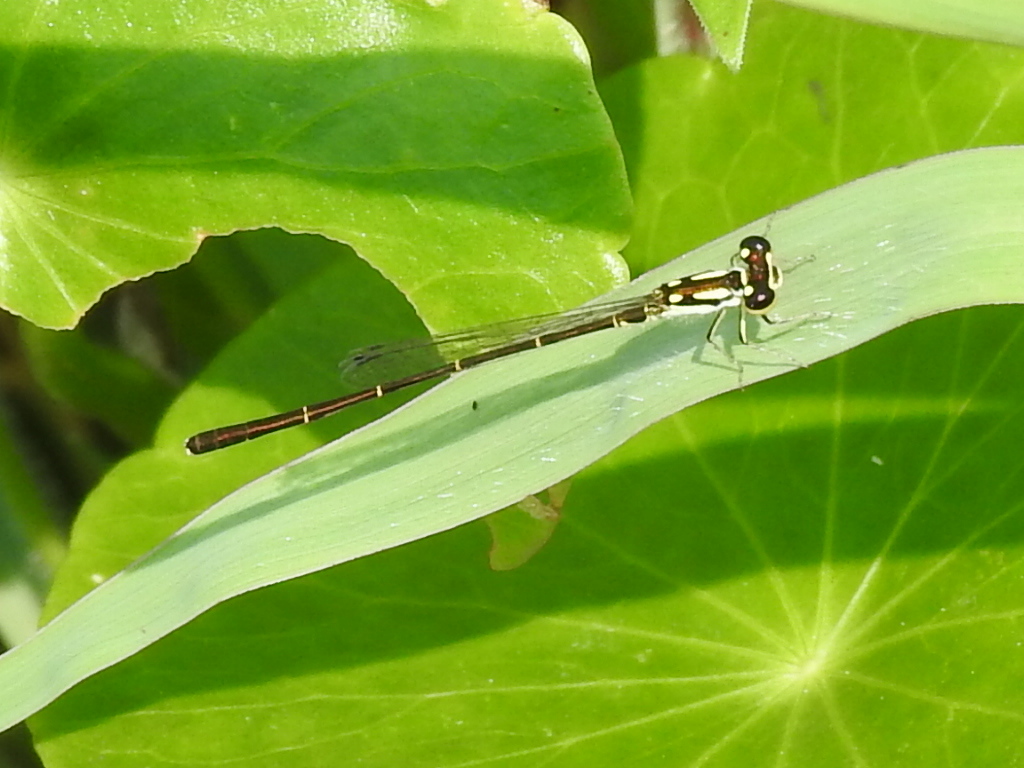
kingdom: Animalia
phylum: Arthropoda
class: Insecta
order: Odonata
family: Coenagrionidae
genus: Ischnura
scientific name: Ischnura posita
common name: Fragile forktail
